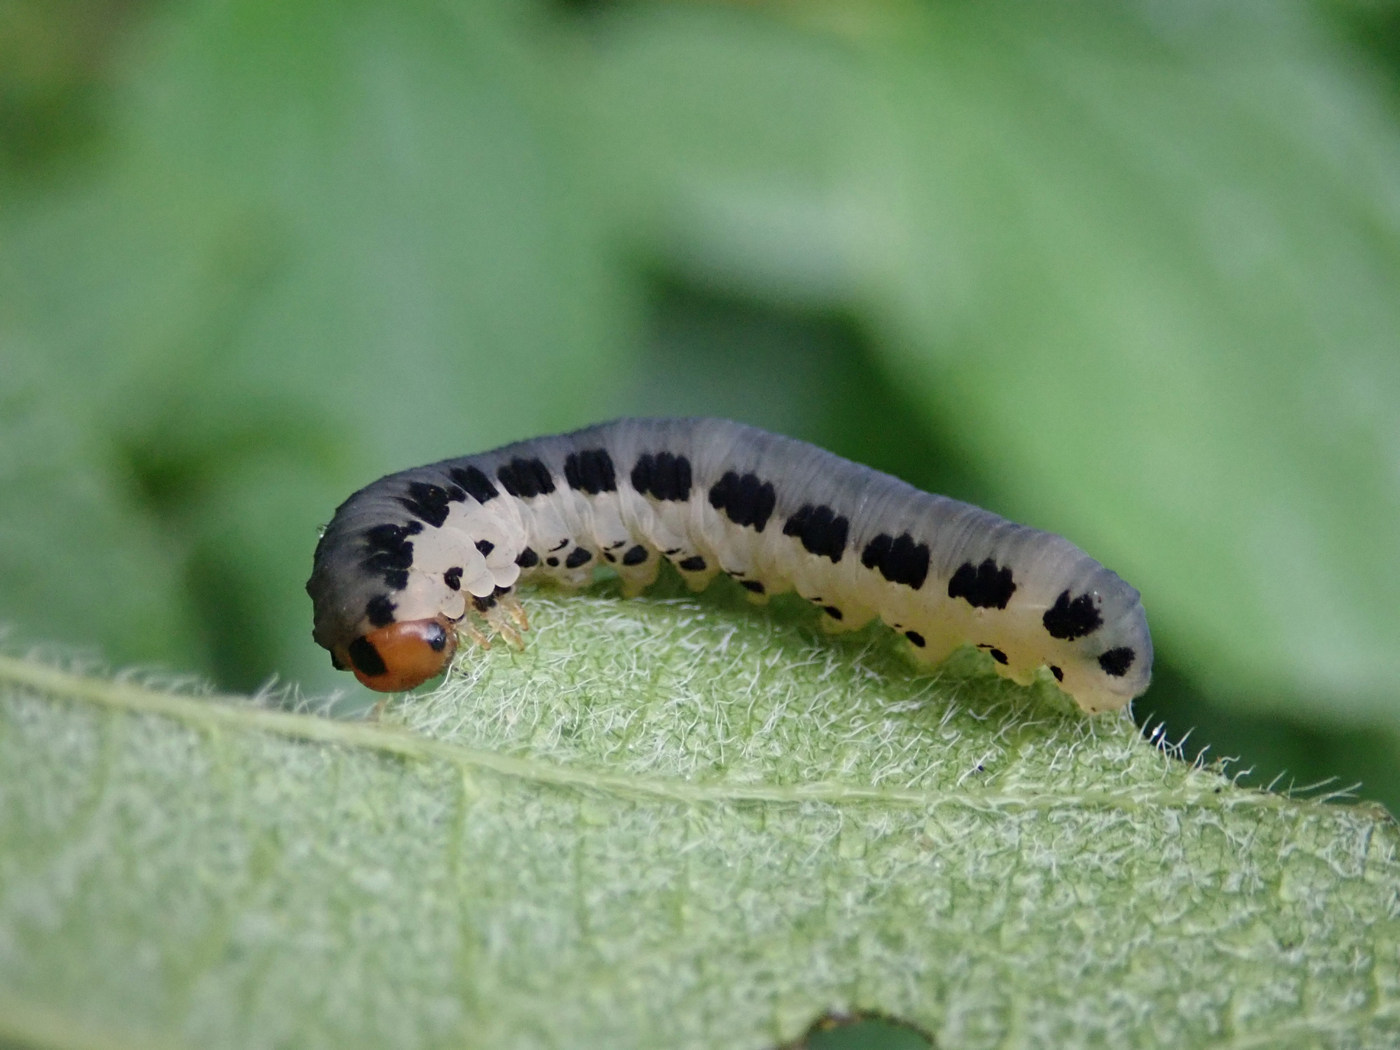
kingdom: Animalia
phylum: Arthropoda
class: Insecta
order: Hymenoptera
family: Tenthredinidae
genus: Haymatus
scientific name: Haymatus blassus
